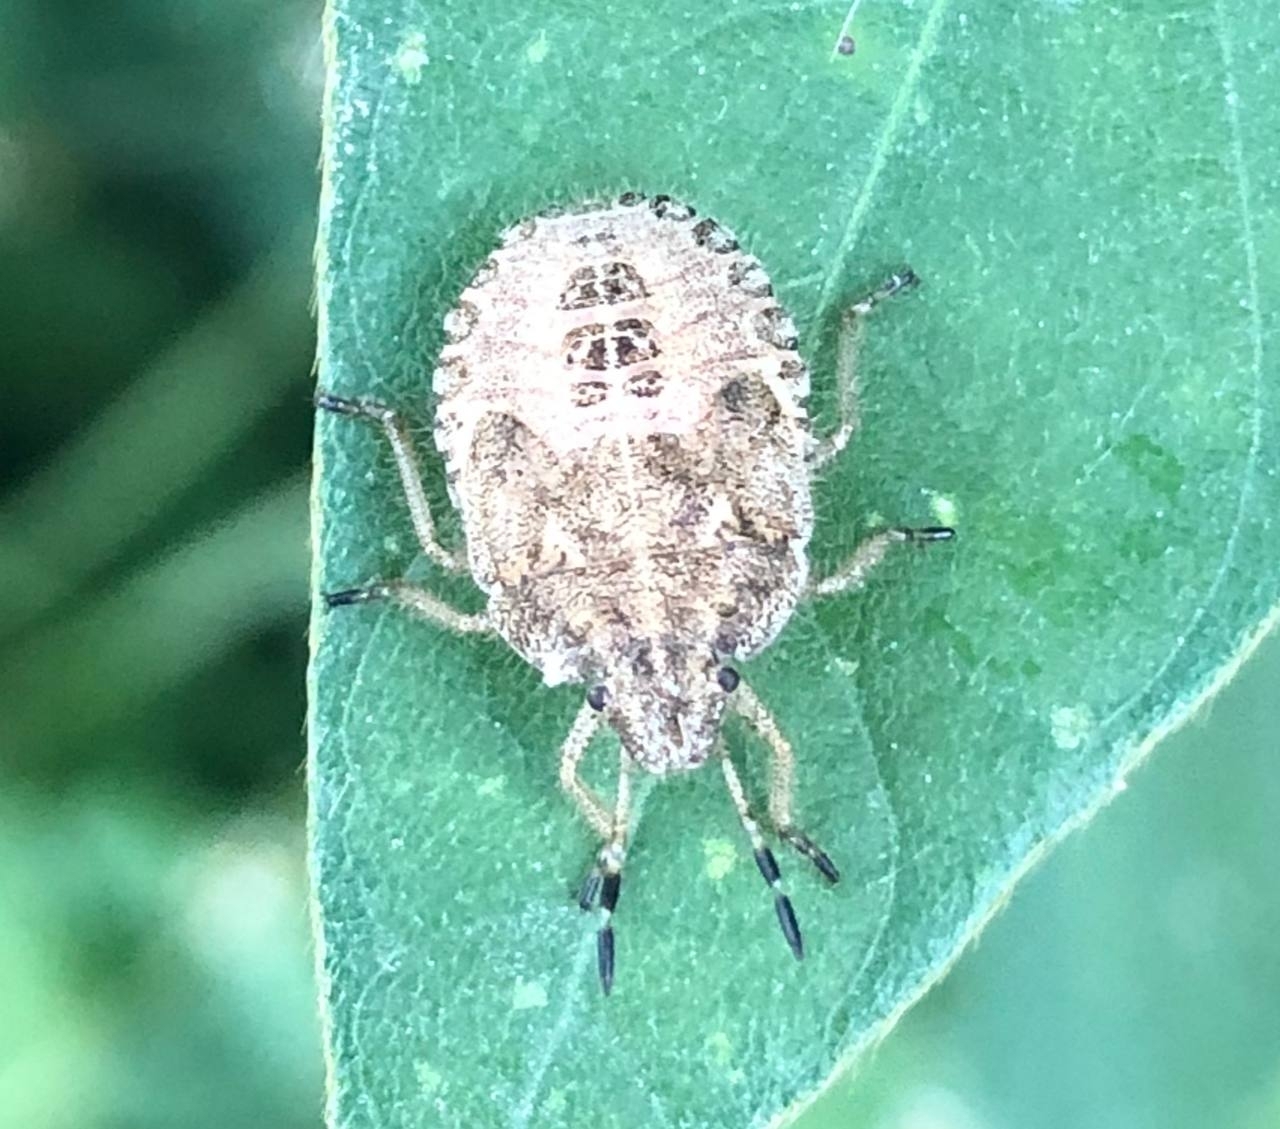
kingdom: Animalia
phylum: Arthropoda
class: Insecta
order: Hemiptera
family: Pentatomidae
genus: Dolycoris
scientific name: Dolycoris baccarum
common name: Sloe bug
